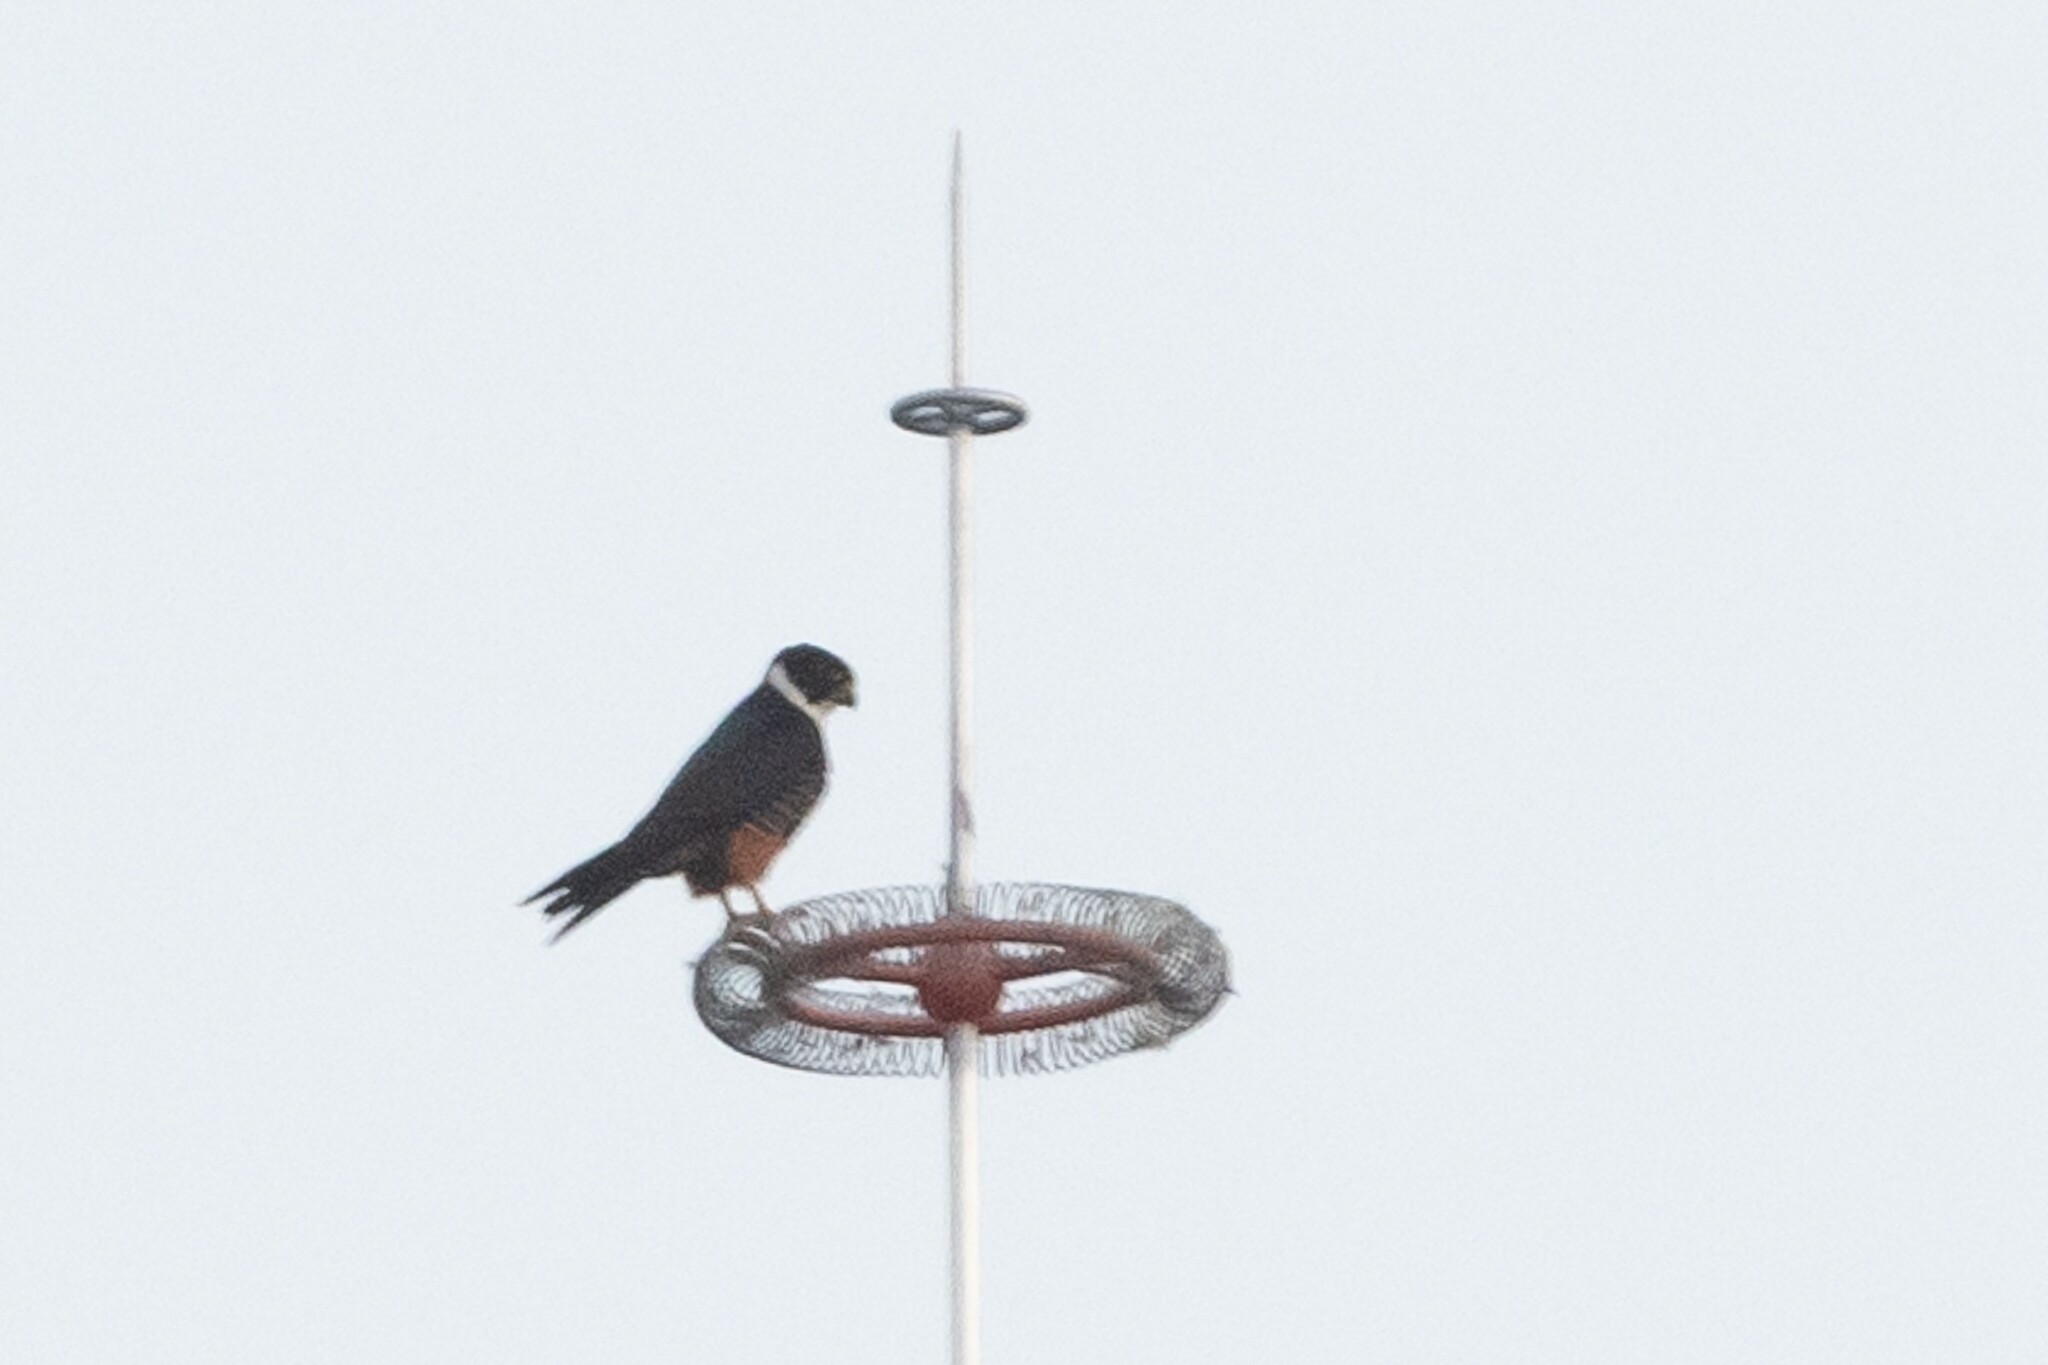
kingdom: Animalia
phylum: Chordata
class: Aves
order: Falconiformes
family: Falconidae
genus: Falco
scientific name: Falco rufigularis
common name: Bat falcon
